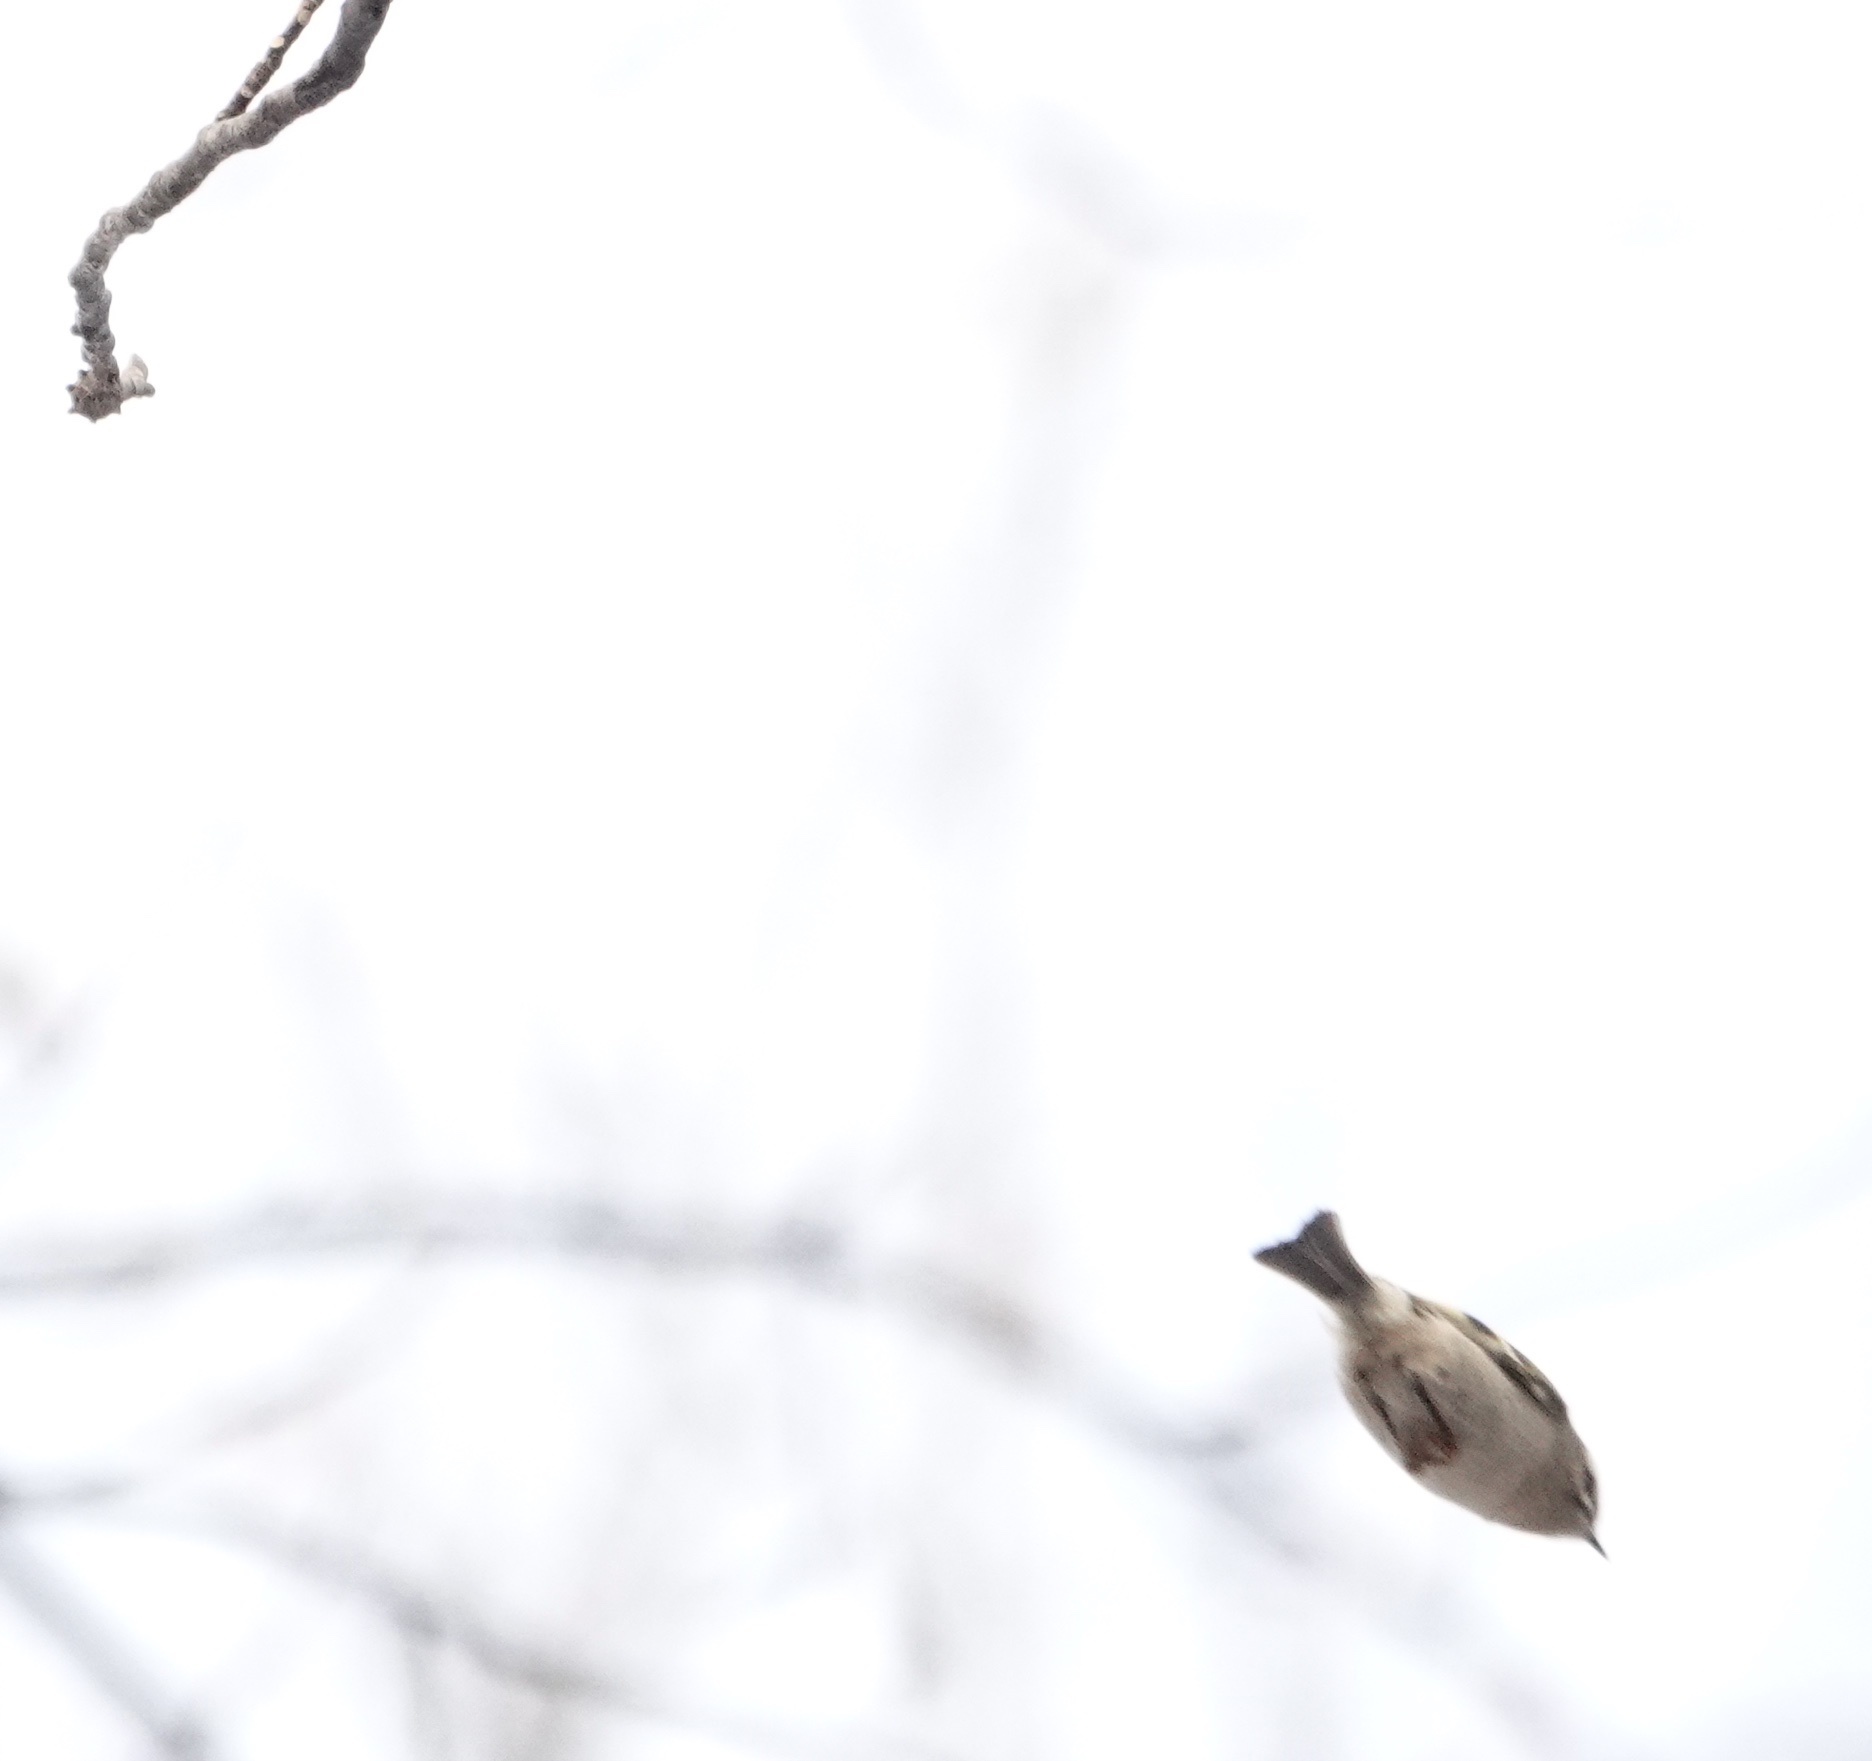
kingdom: Animalia
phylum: Chordata
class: Aves
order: Passeriformes
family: Regulidae
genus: Regulus
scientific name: Regulus satrapa
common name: Golden-crowned kinglet
